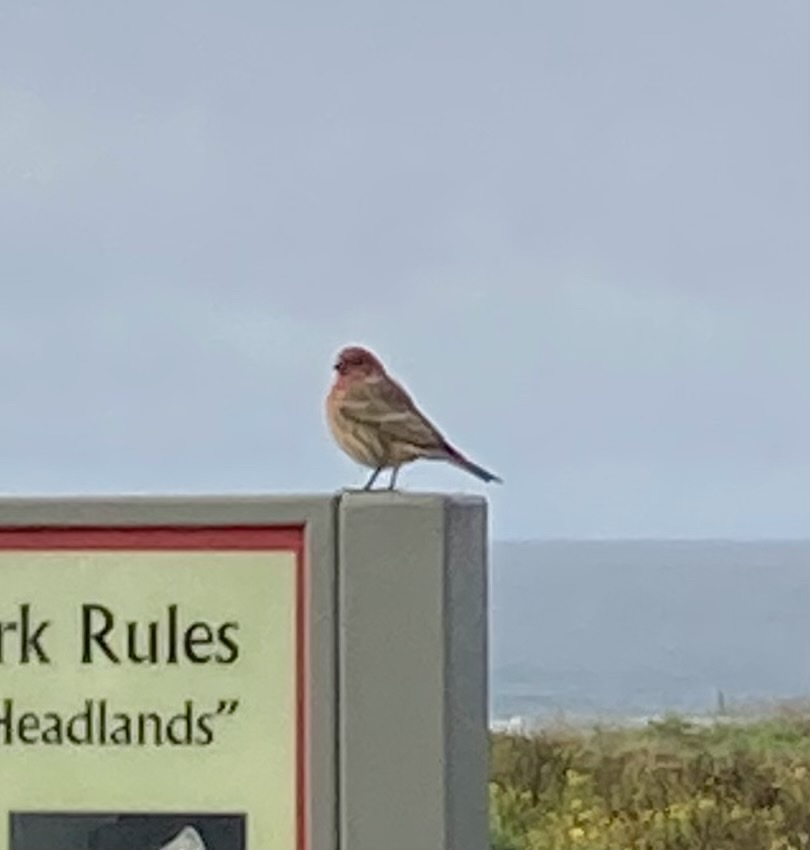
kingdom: Animalia
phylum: Chordata
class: Aves
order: Passeriformes
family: Fringillidae
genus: Haemorhous
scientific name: Haemorhous mexicanus
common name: House finch
